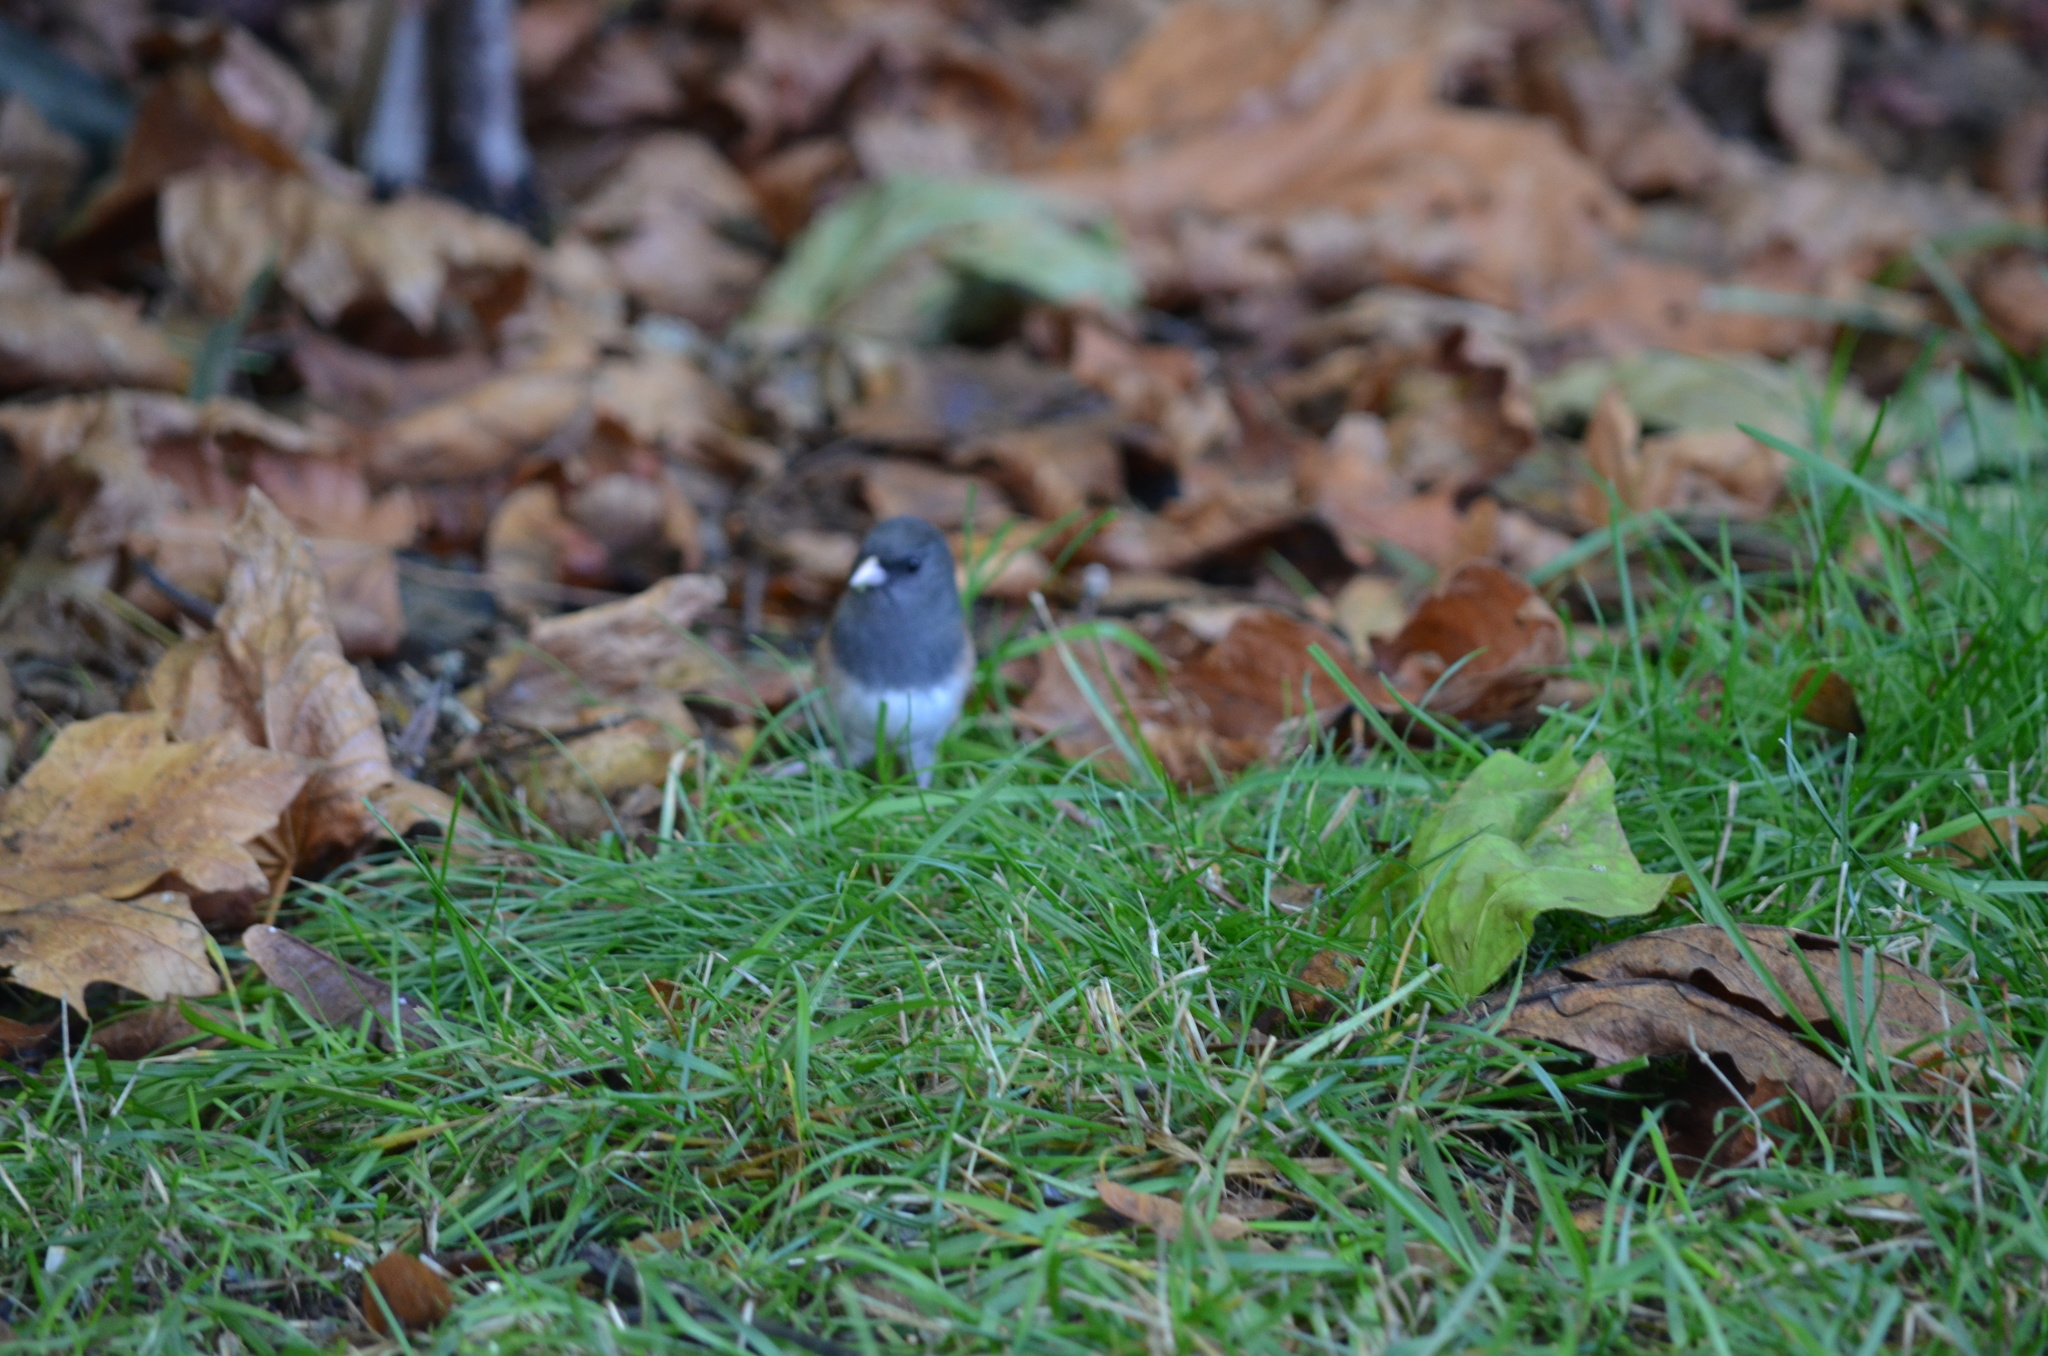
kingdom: Animalia
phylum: Chordata
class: Aves
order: Passeriformes
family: Passerellidae
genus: Junco
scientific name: Junco hyemalis
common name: Dark-eyed junco
